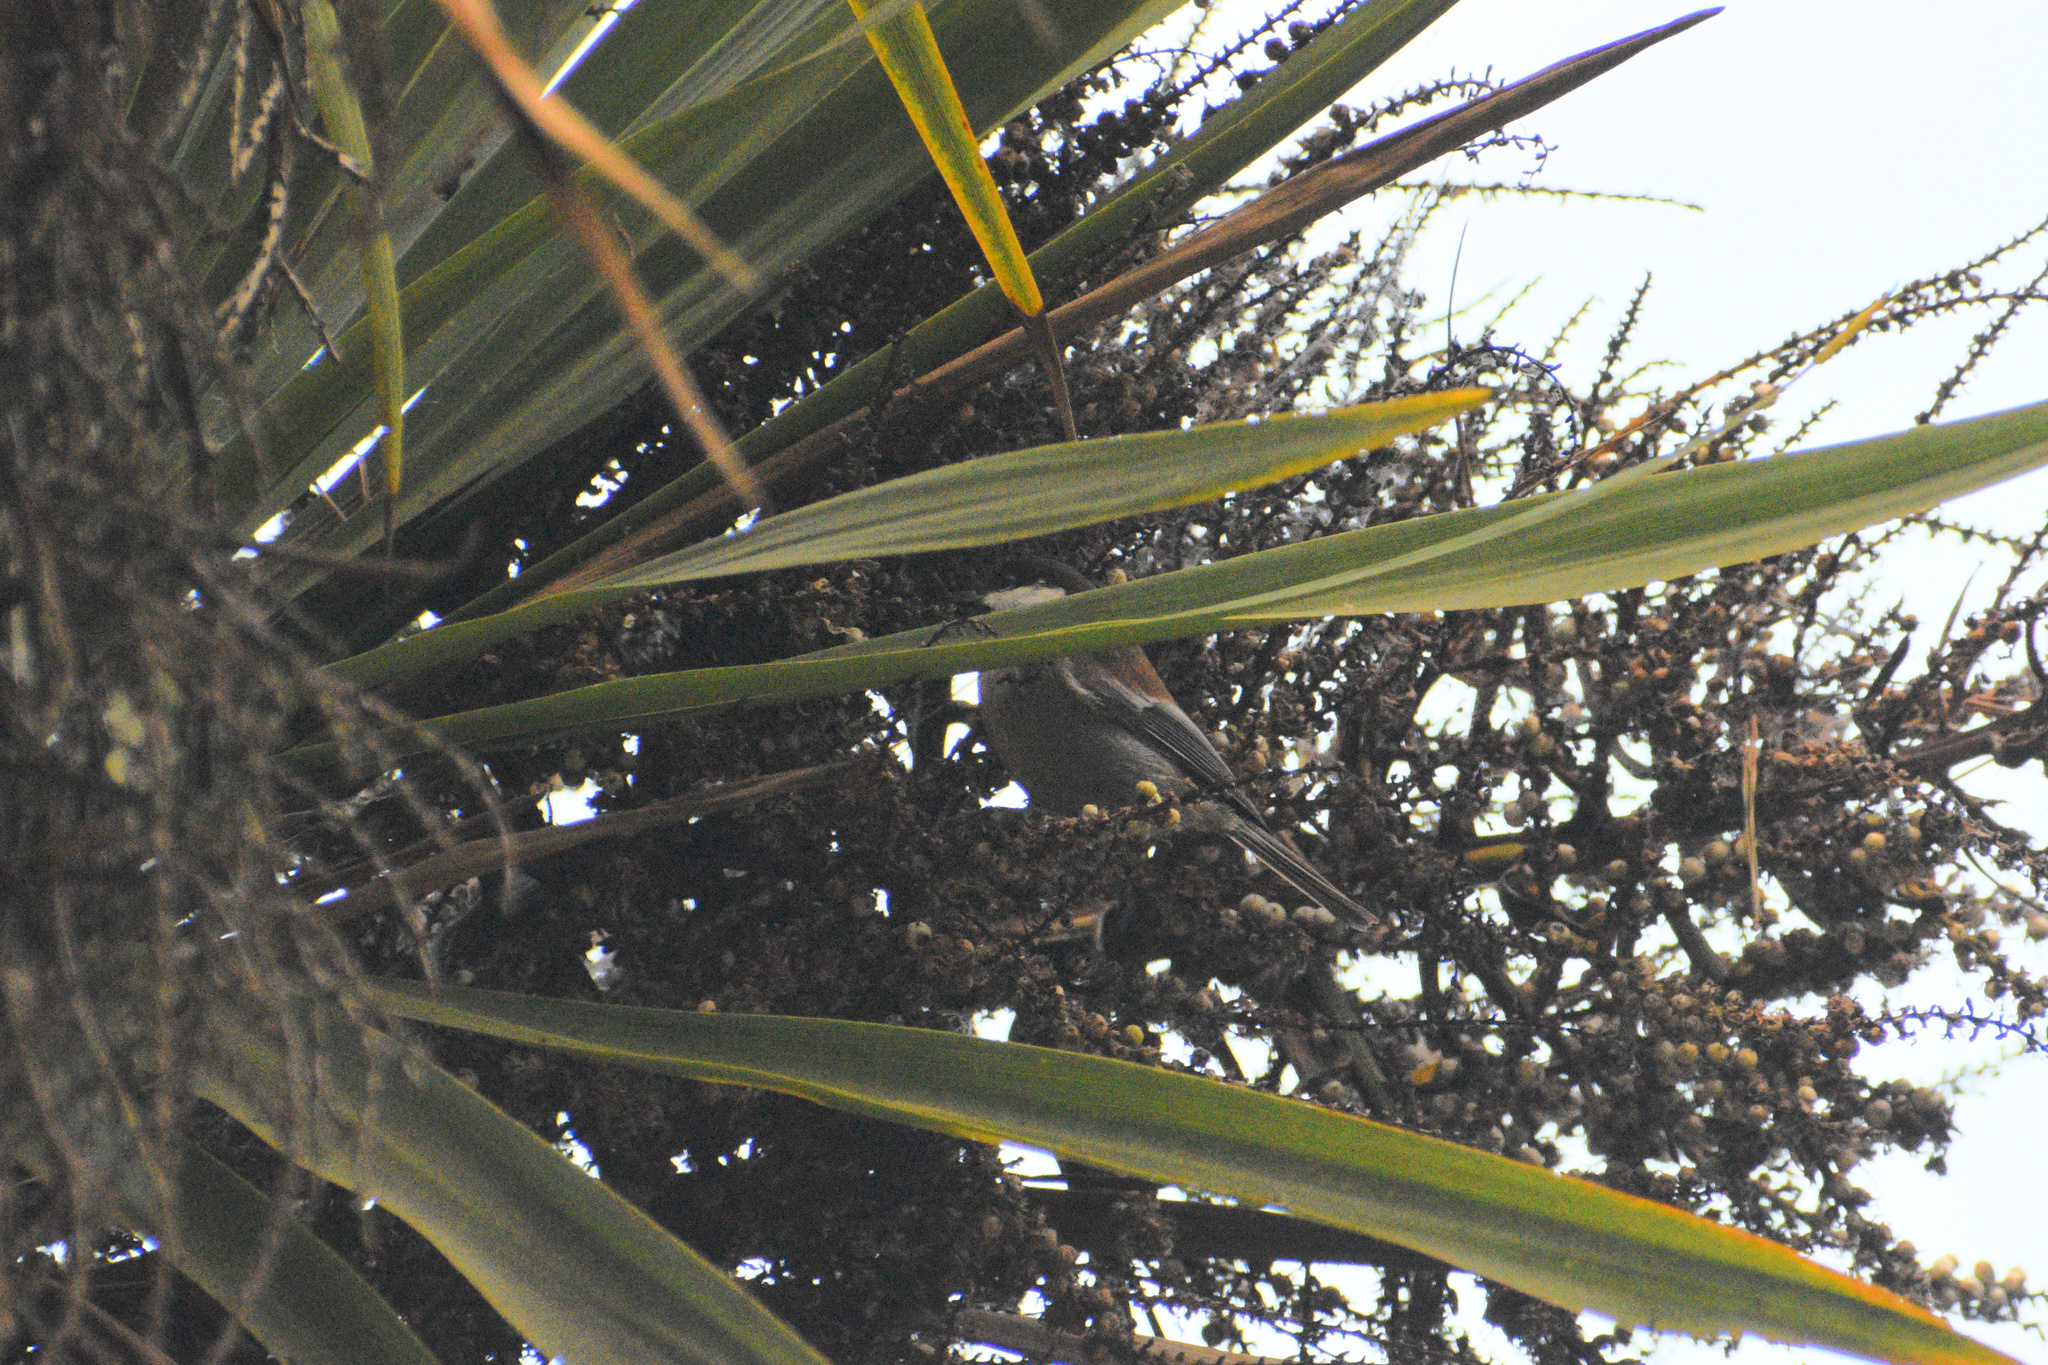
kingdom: Animalia
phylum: Chordata
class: Aves
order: Passeriformes
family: Paridae
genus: Poecile
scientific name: Poecile rufescens
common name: Chestnut-backed chickadee
